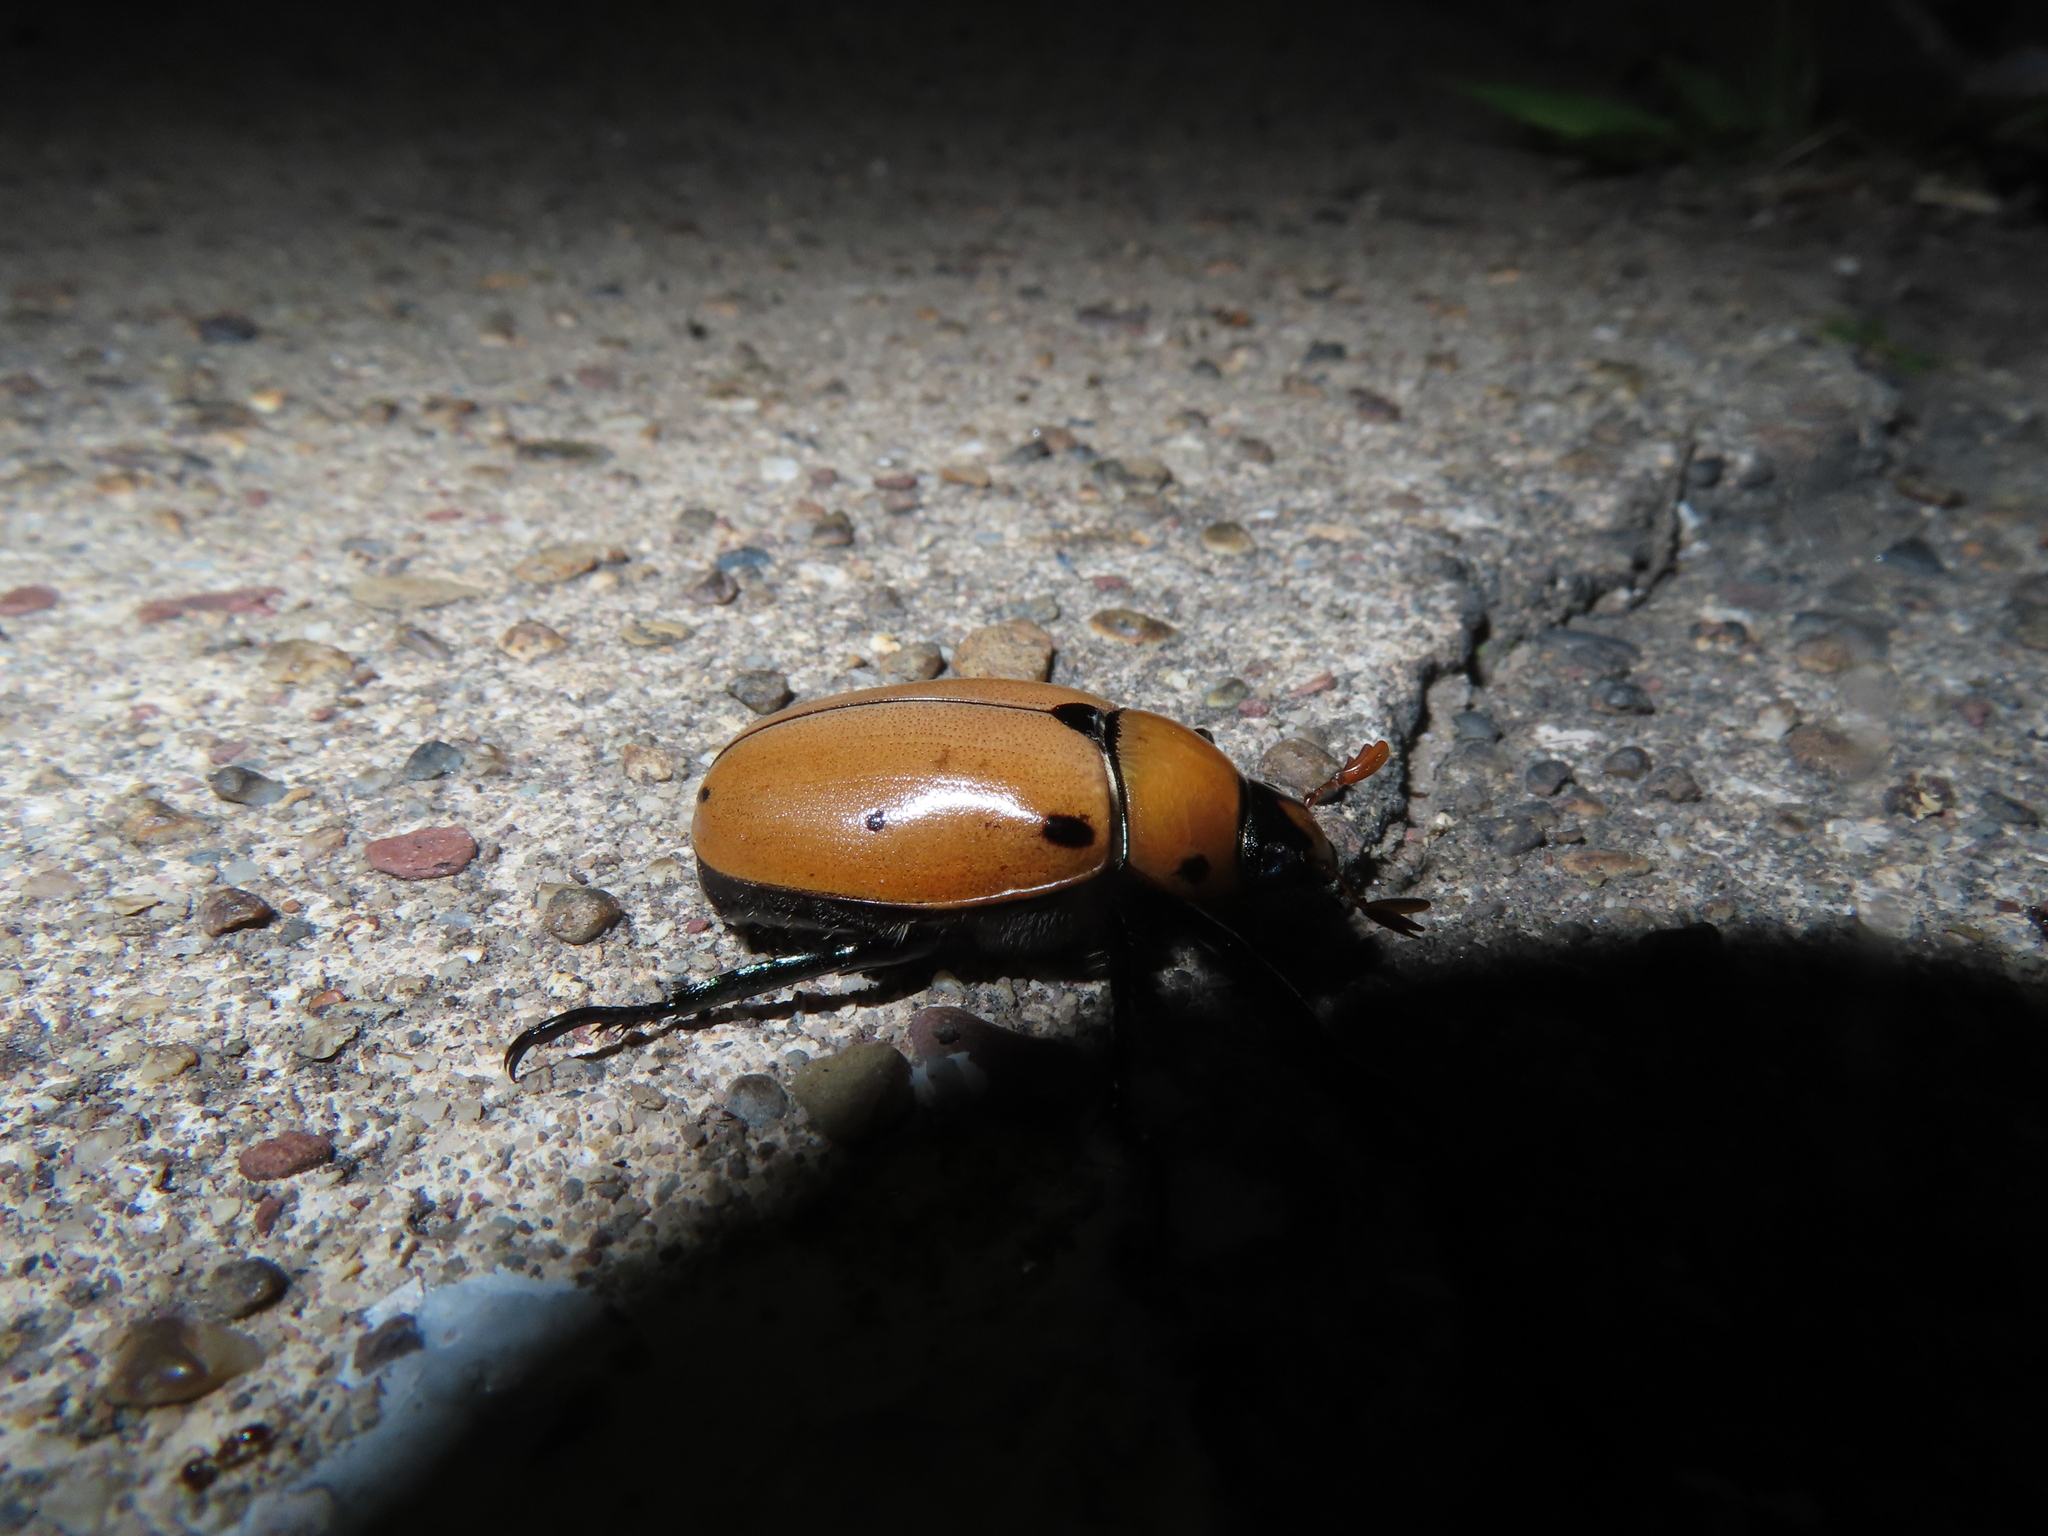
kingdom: Animalia
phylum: Arthropoda
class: Insecta
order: Coleoptera
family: Scarabaeidae
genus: Pelidnota
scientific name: Pelidnota punctata
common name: Grapevine beetle
